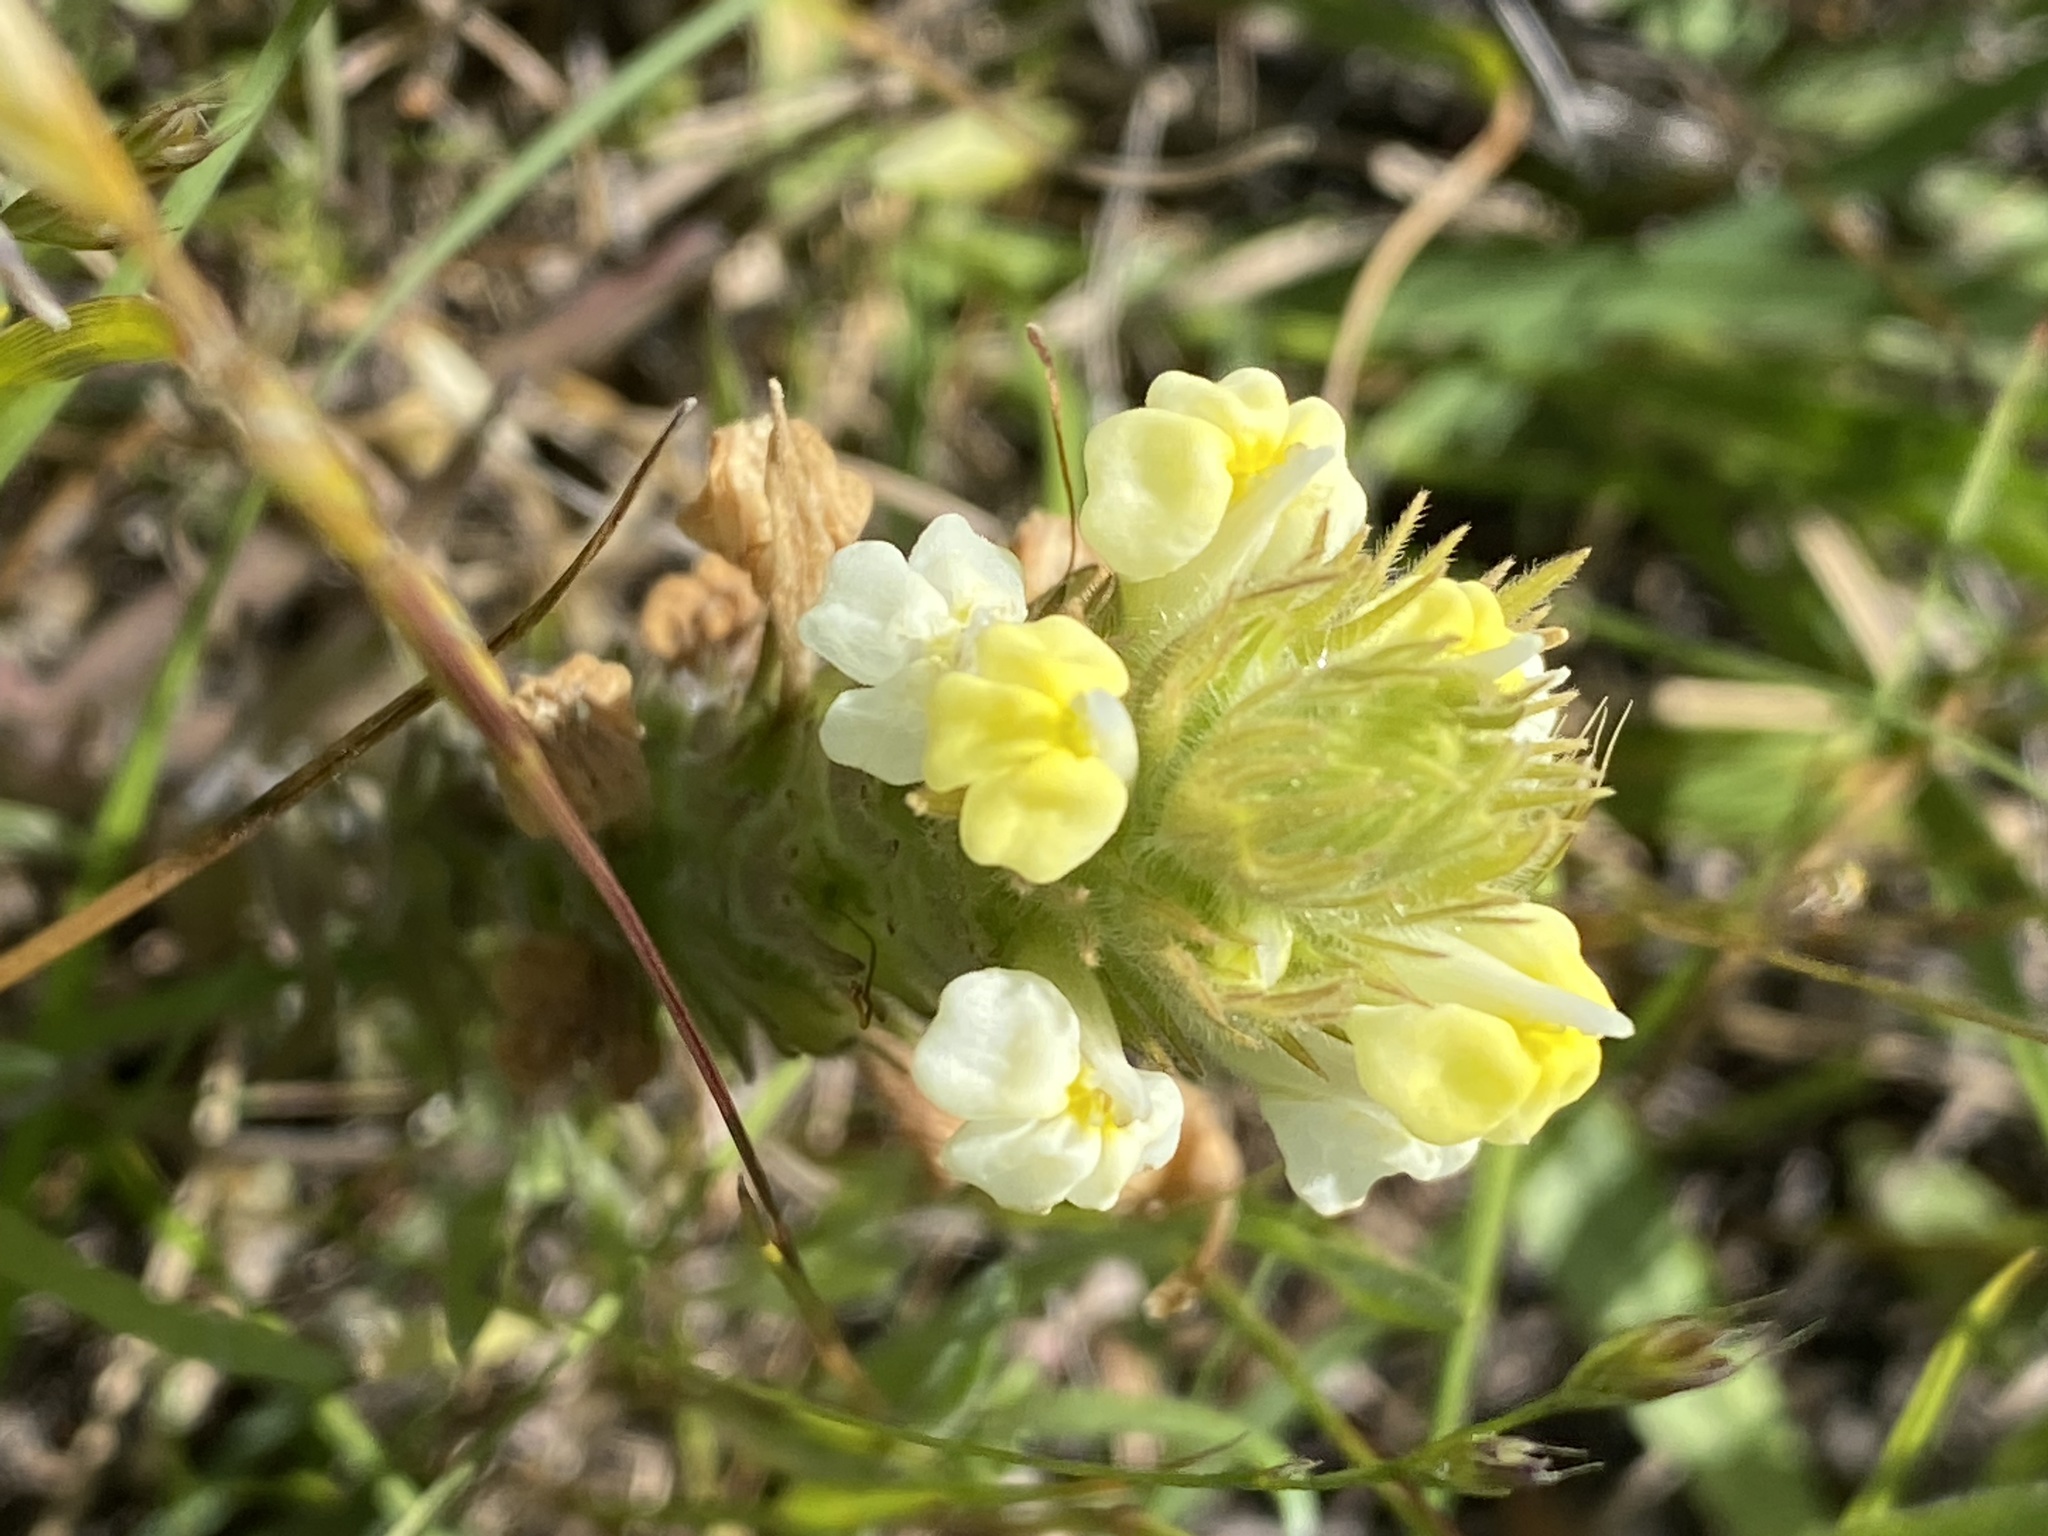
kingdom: Plantae
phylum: Tracheophyta
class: Magnoliopsida
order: Lamiales
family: Orobanchaceae
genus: Castilleja
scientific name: Castilleja rubicundula
